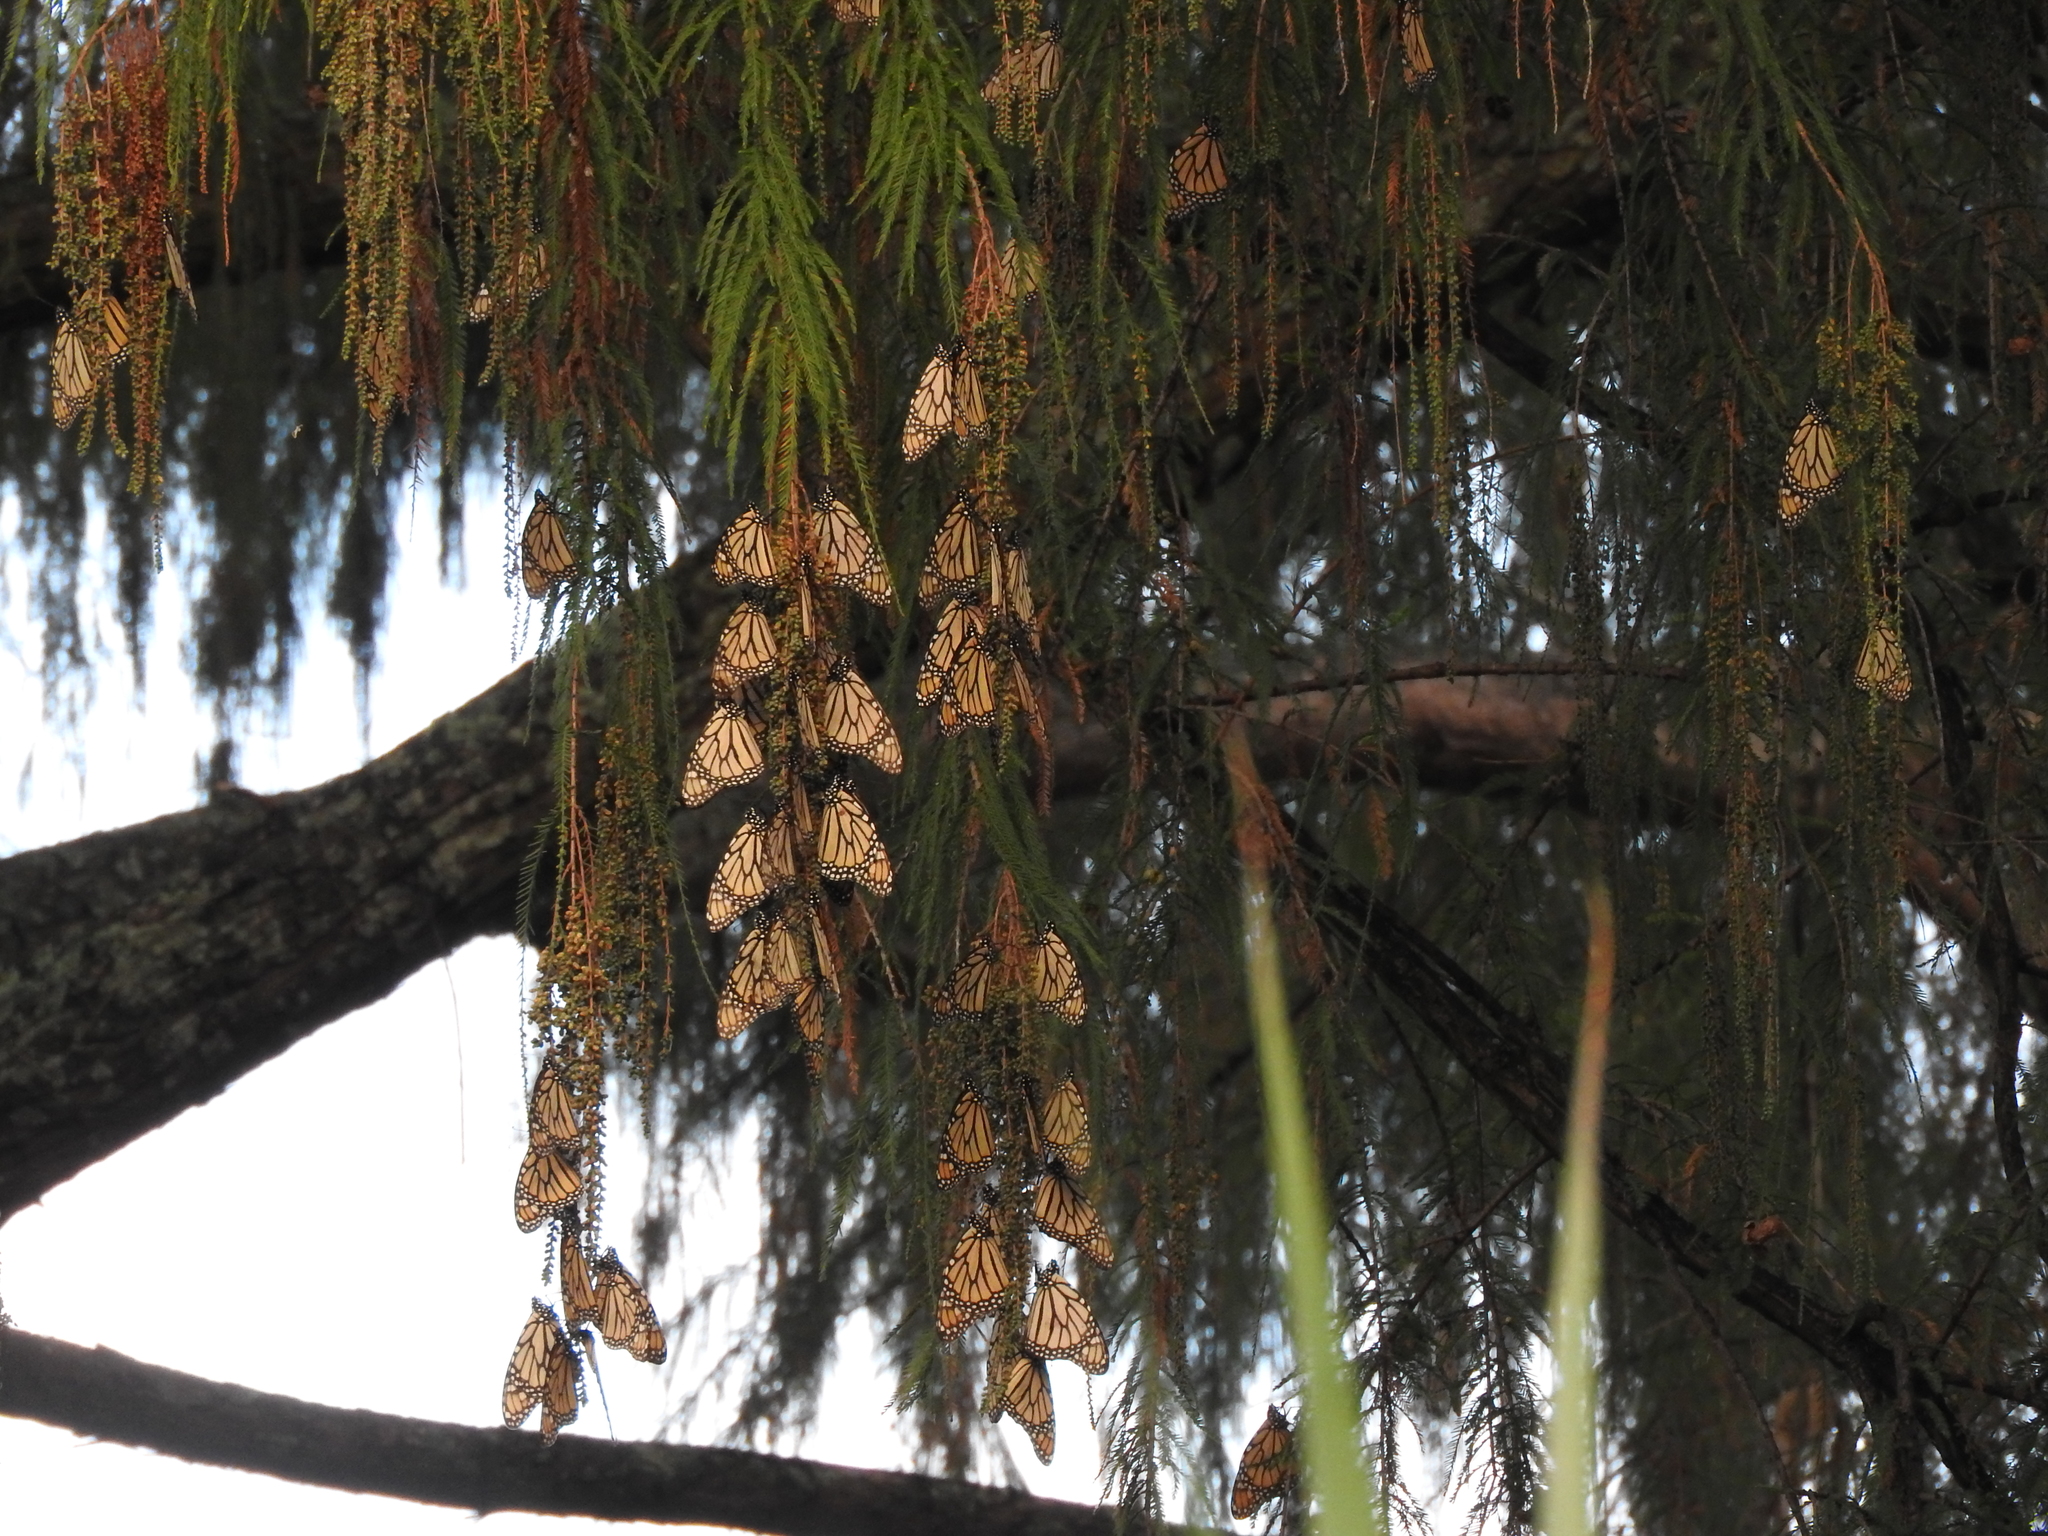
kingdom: Animalia
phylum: Arthropoda
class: Insecta
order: Lepidoptera
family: Nymphalidae
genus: Danaus
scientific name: Danaus plexippus
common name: Monarch
